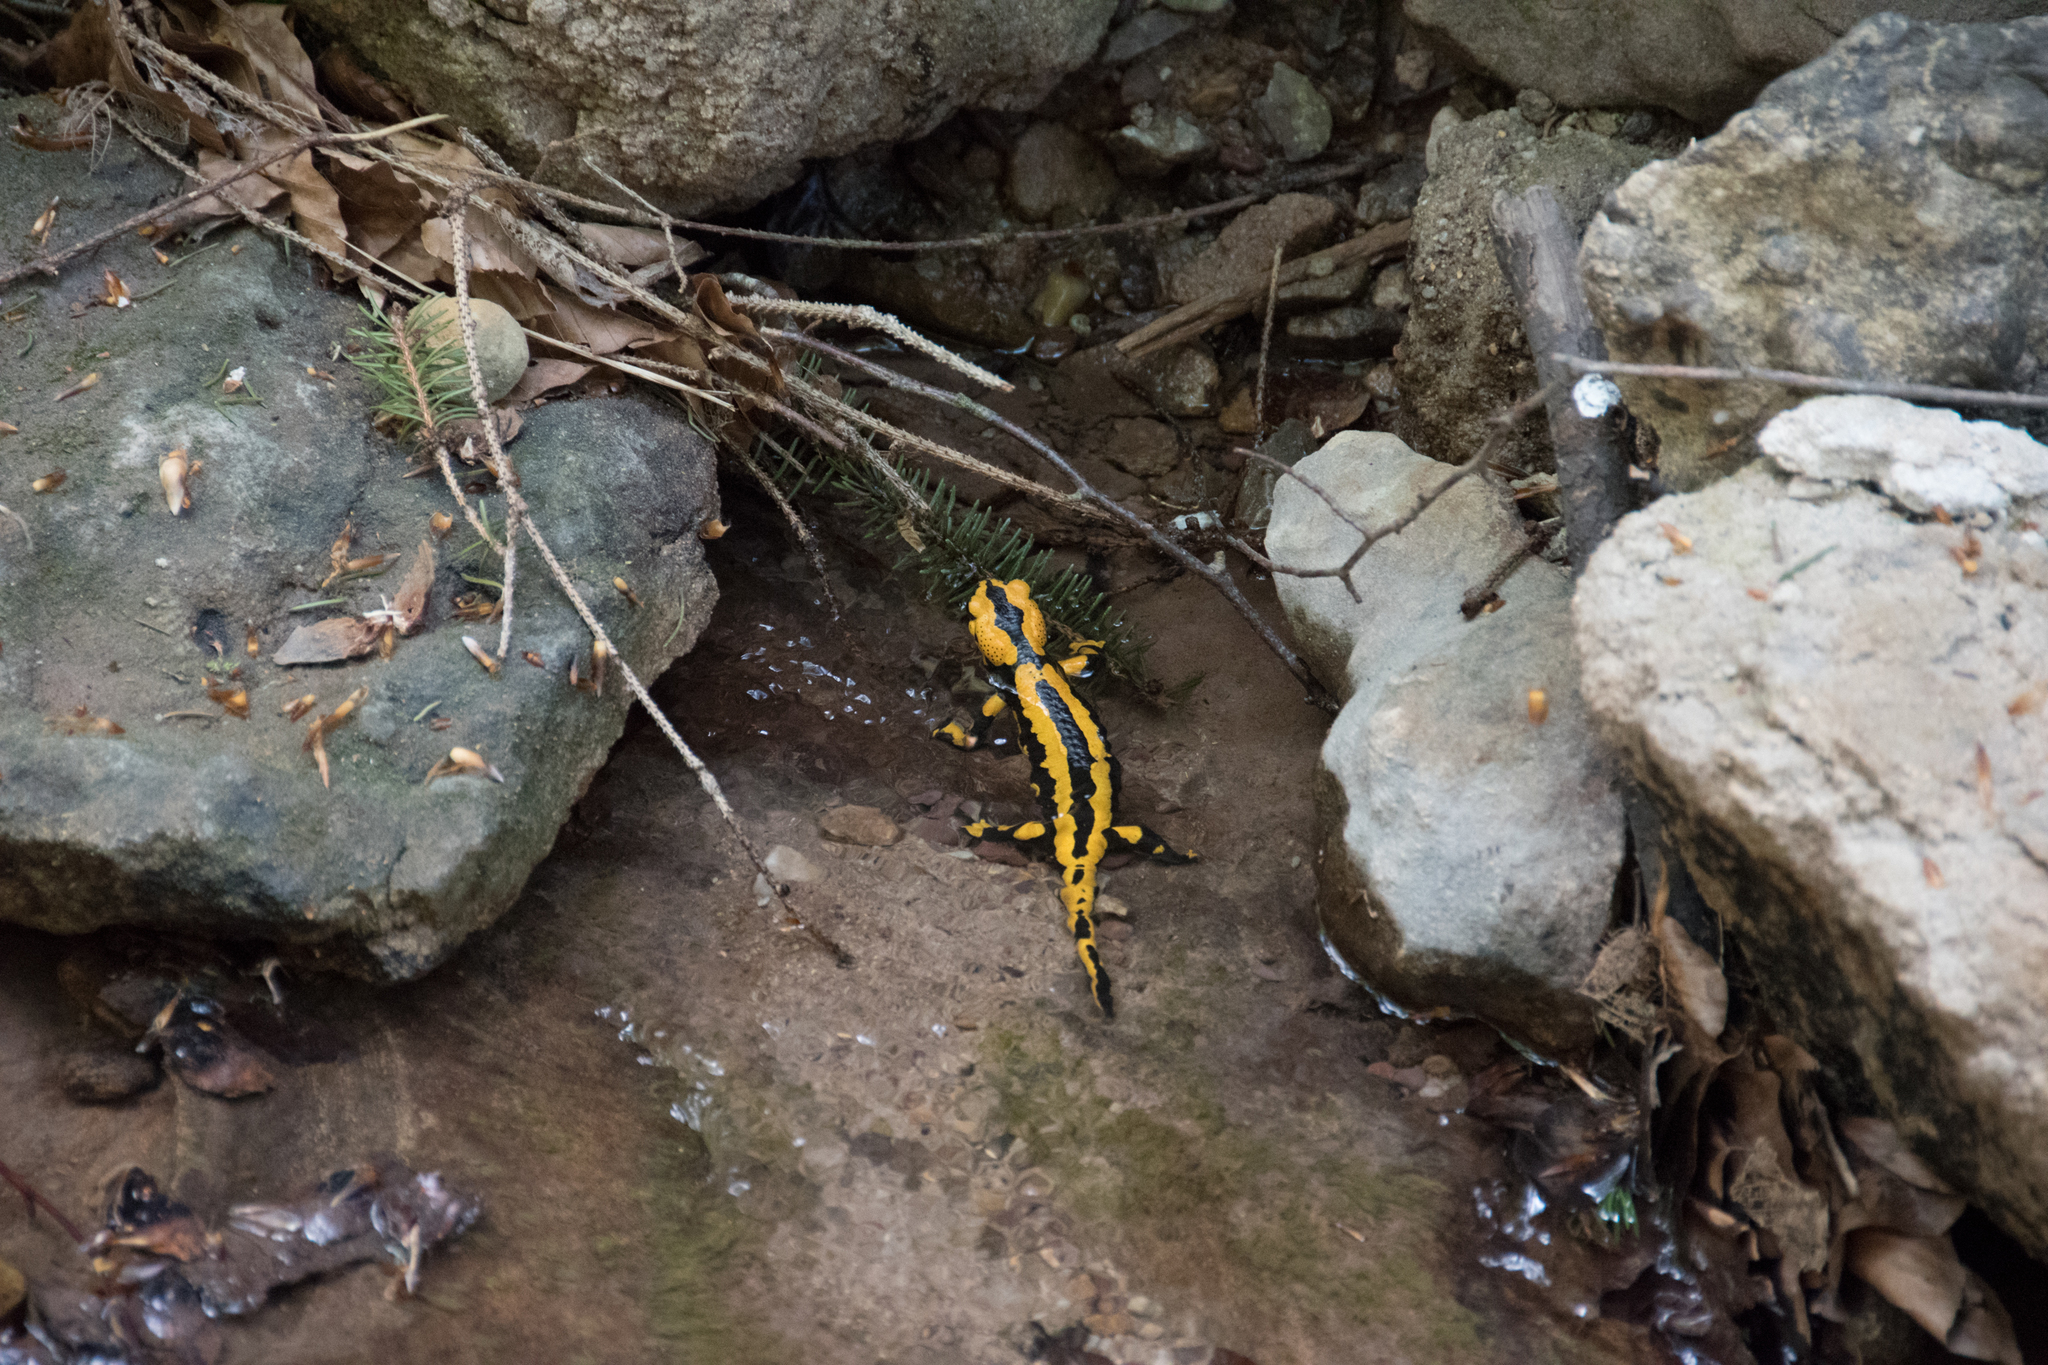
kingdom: Animalia
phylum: Chordata
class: Amphibia
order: Caudata
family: Salamandridae
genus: Salamandra
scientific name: Salamandra salamandra
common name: Fire salamander
